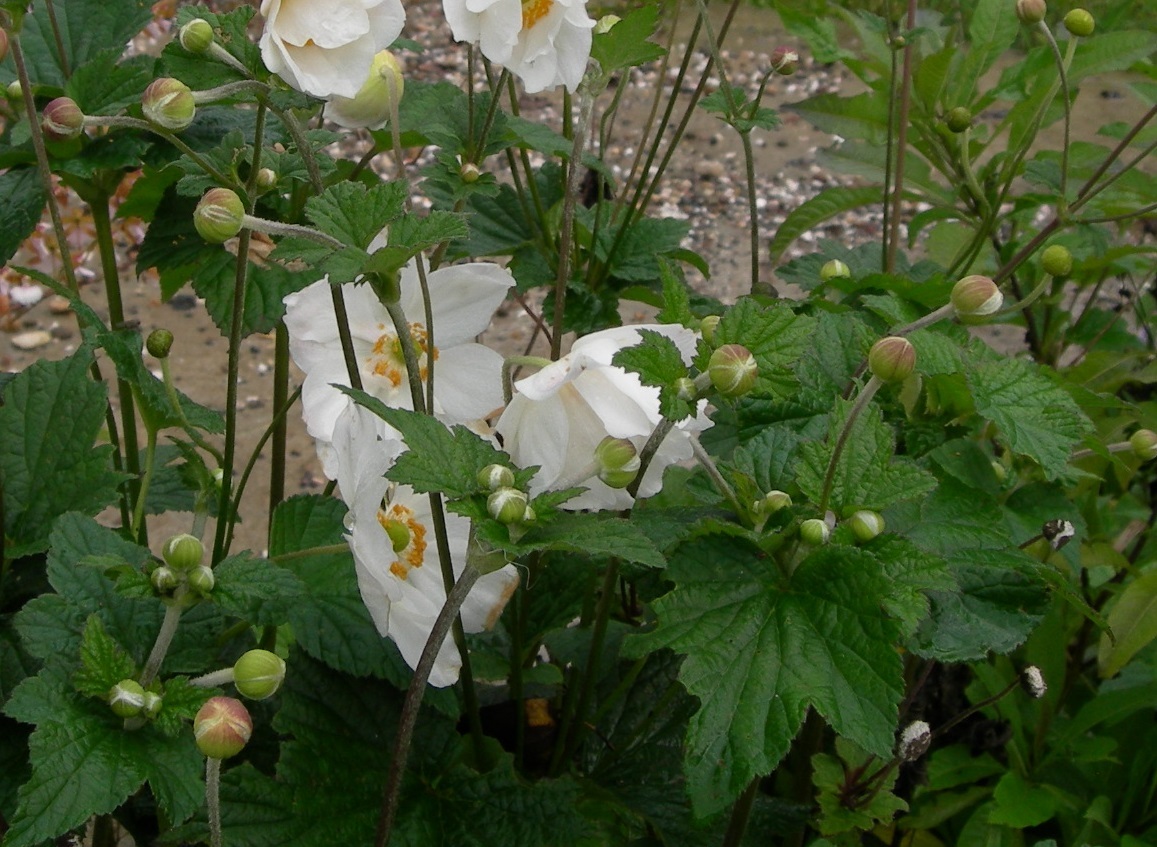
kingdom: Plantae
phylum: Tracheophyta
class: Magnoliopsida
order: Ranunculales
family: Ranunculaceae
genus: Eriocapitella
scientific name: Eriocapitella hupehensis
